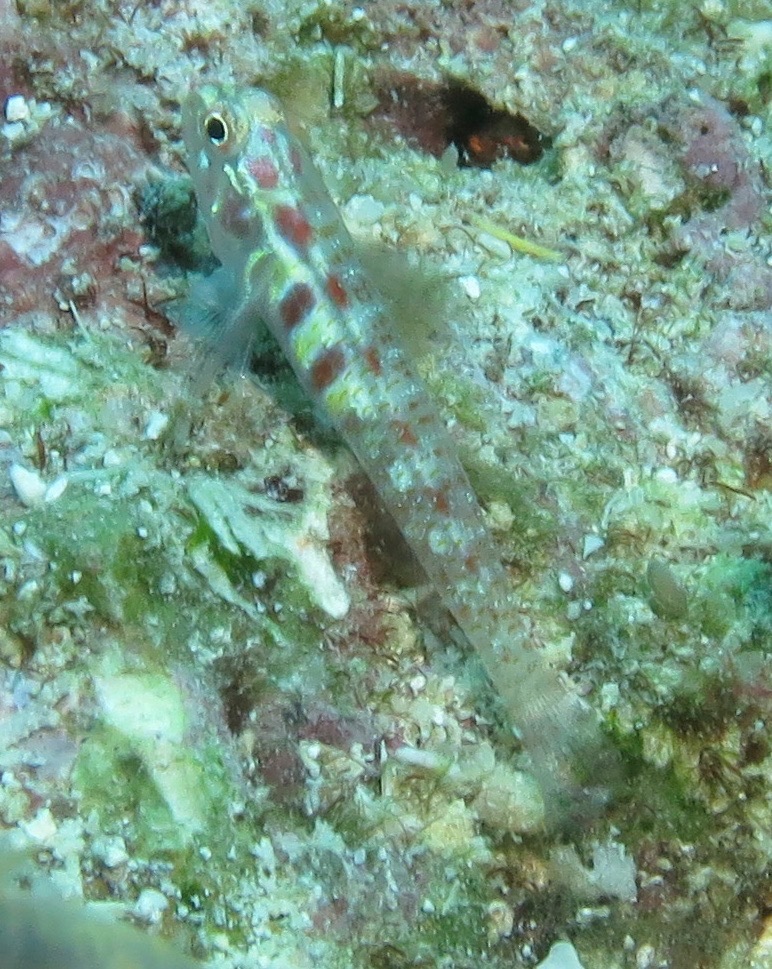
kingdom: Animalia
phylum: Chordata
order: Perciformes
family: Gobiidae
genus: Eviota
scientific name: Eviota teresae
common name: Terry's dwarfgoby
